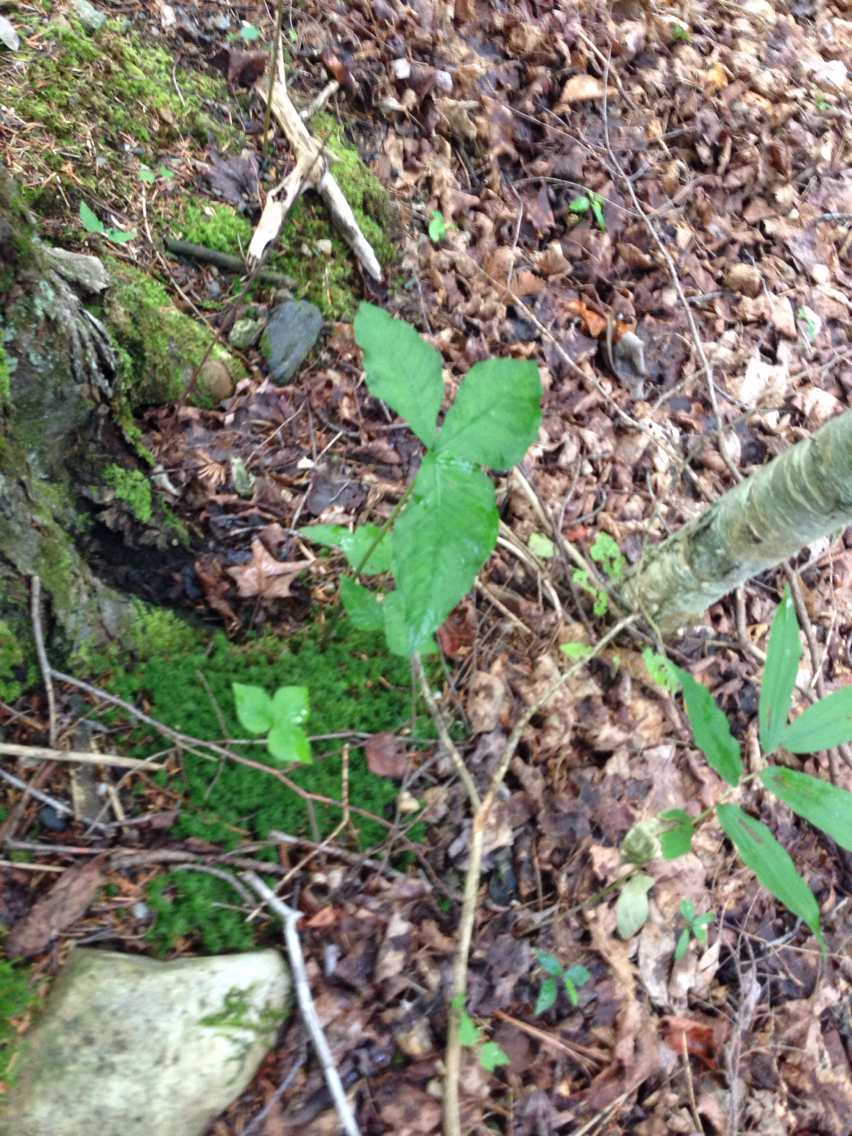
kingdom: Plantae
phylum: Tracheophyta
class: Liliopsida
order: Alismatales
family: Araceae
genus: Arisaema
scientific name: Arisaema triphyllum
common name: Jack-in-the-pulpit
